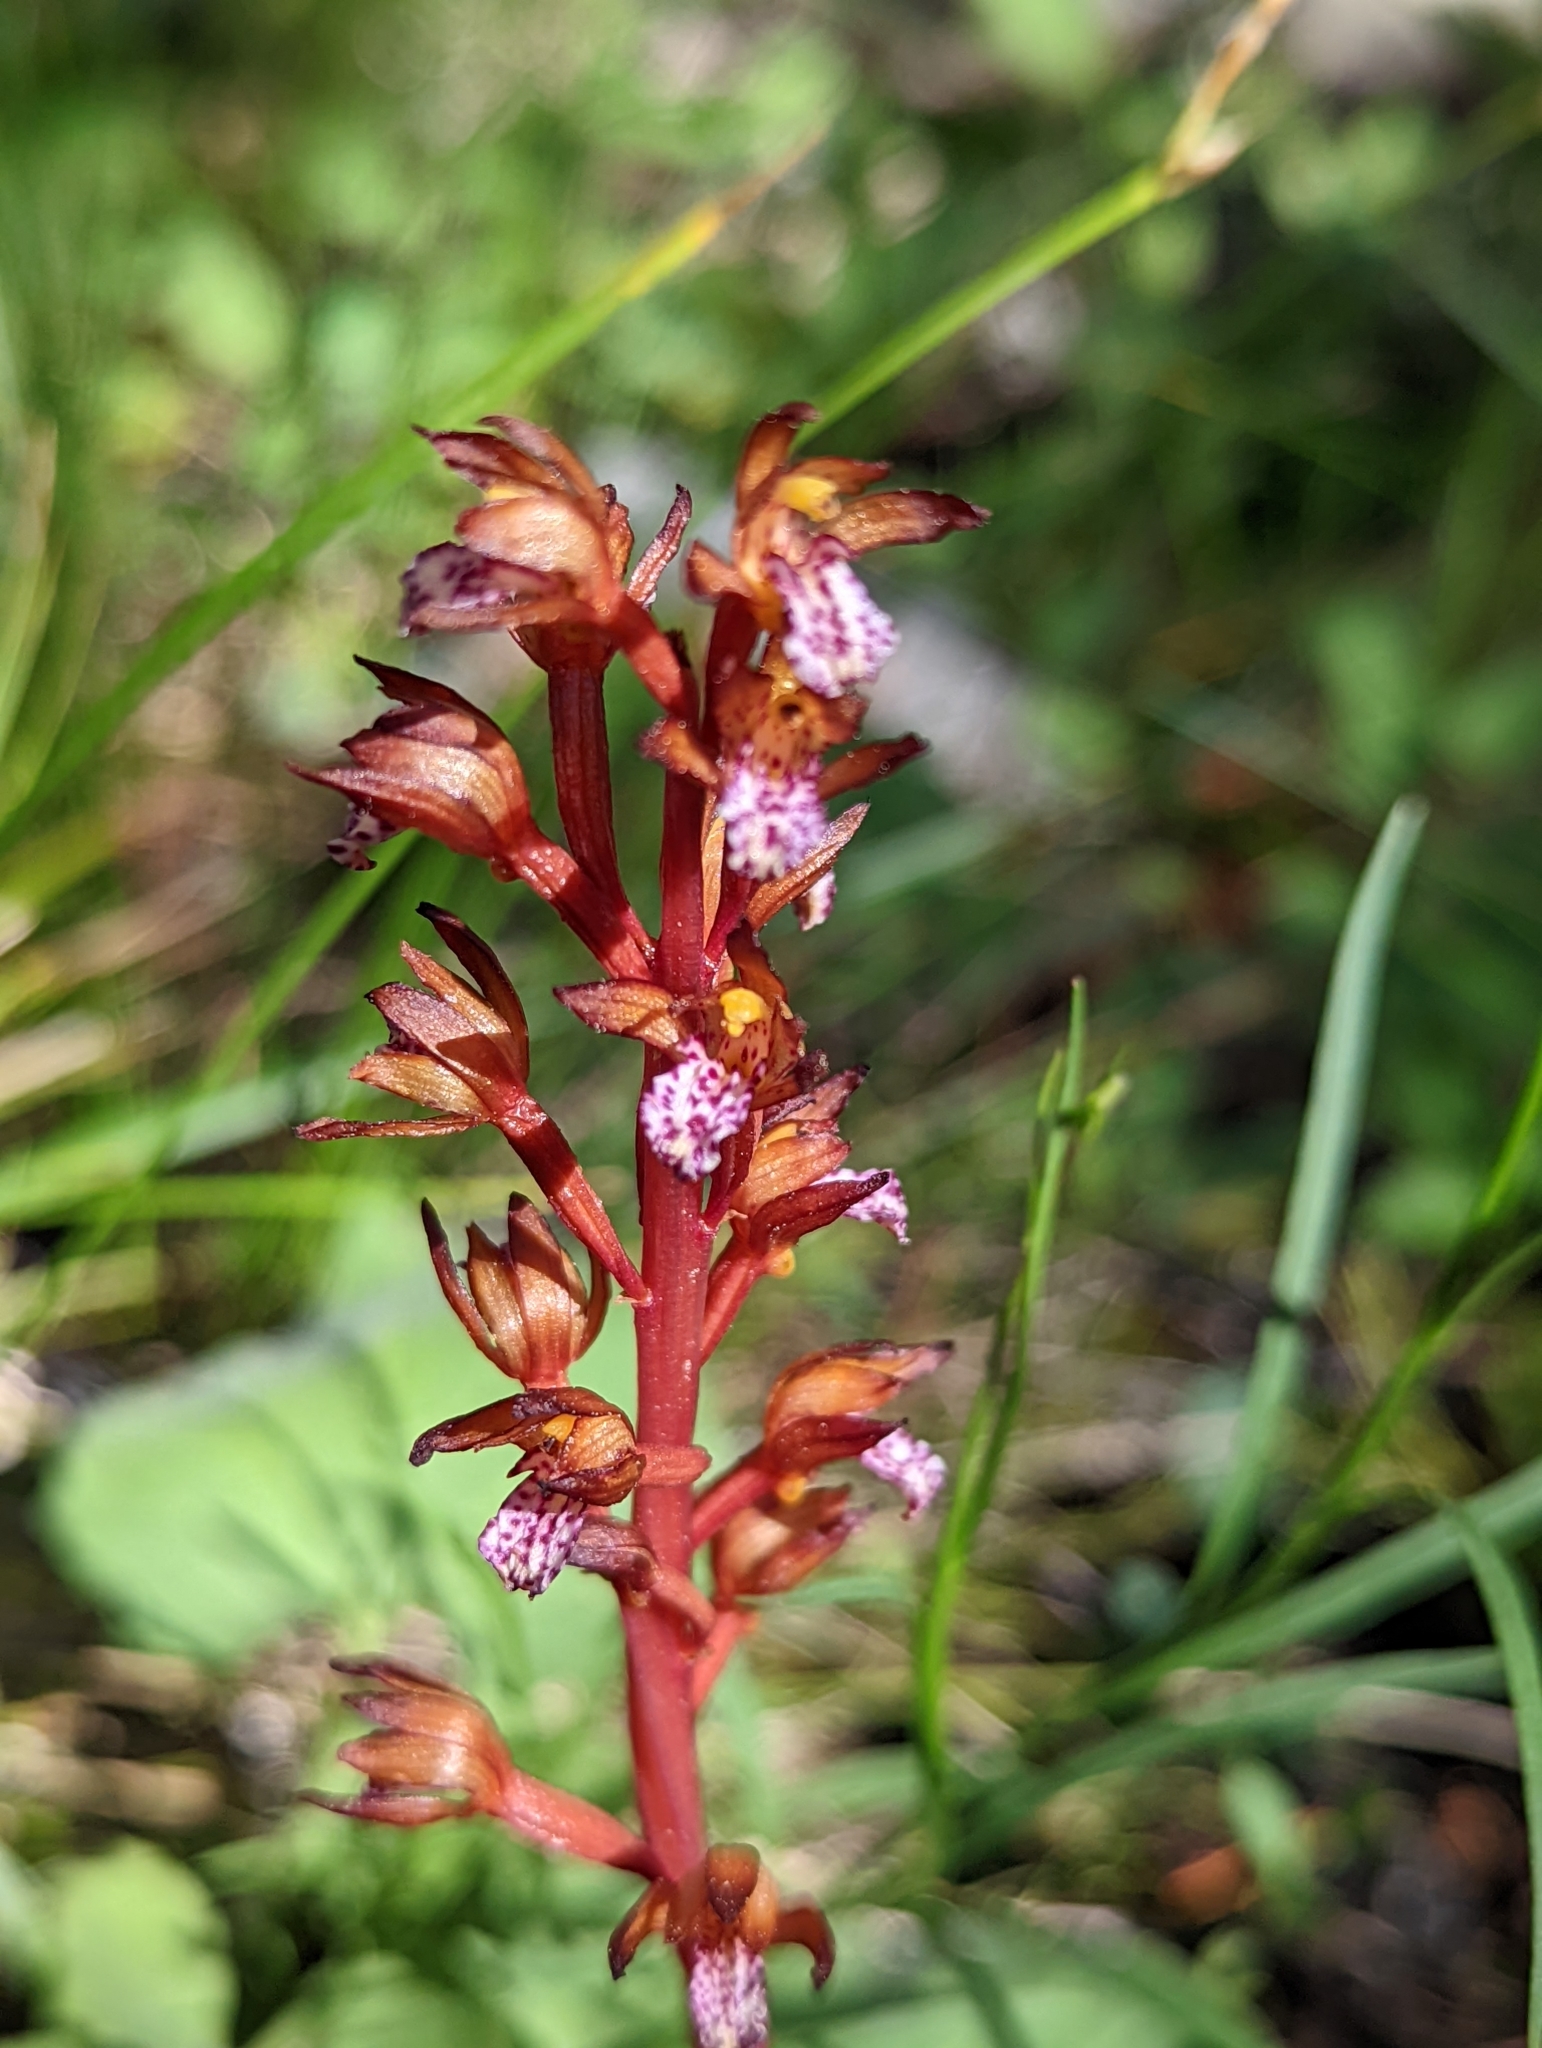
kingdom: Plantae
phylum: Tracheophyta
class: Liliopsida
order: Asparagales
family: Orchidaceae
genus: Corallorhiza
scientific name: Corallorhiza maculata
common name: Spotted coralroot
